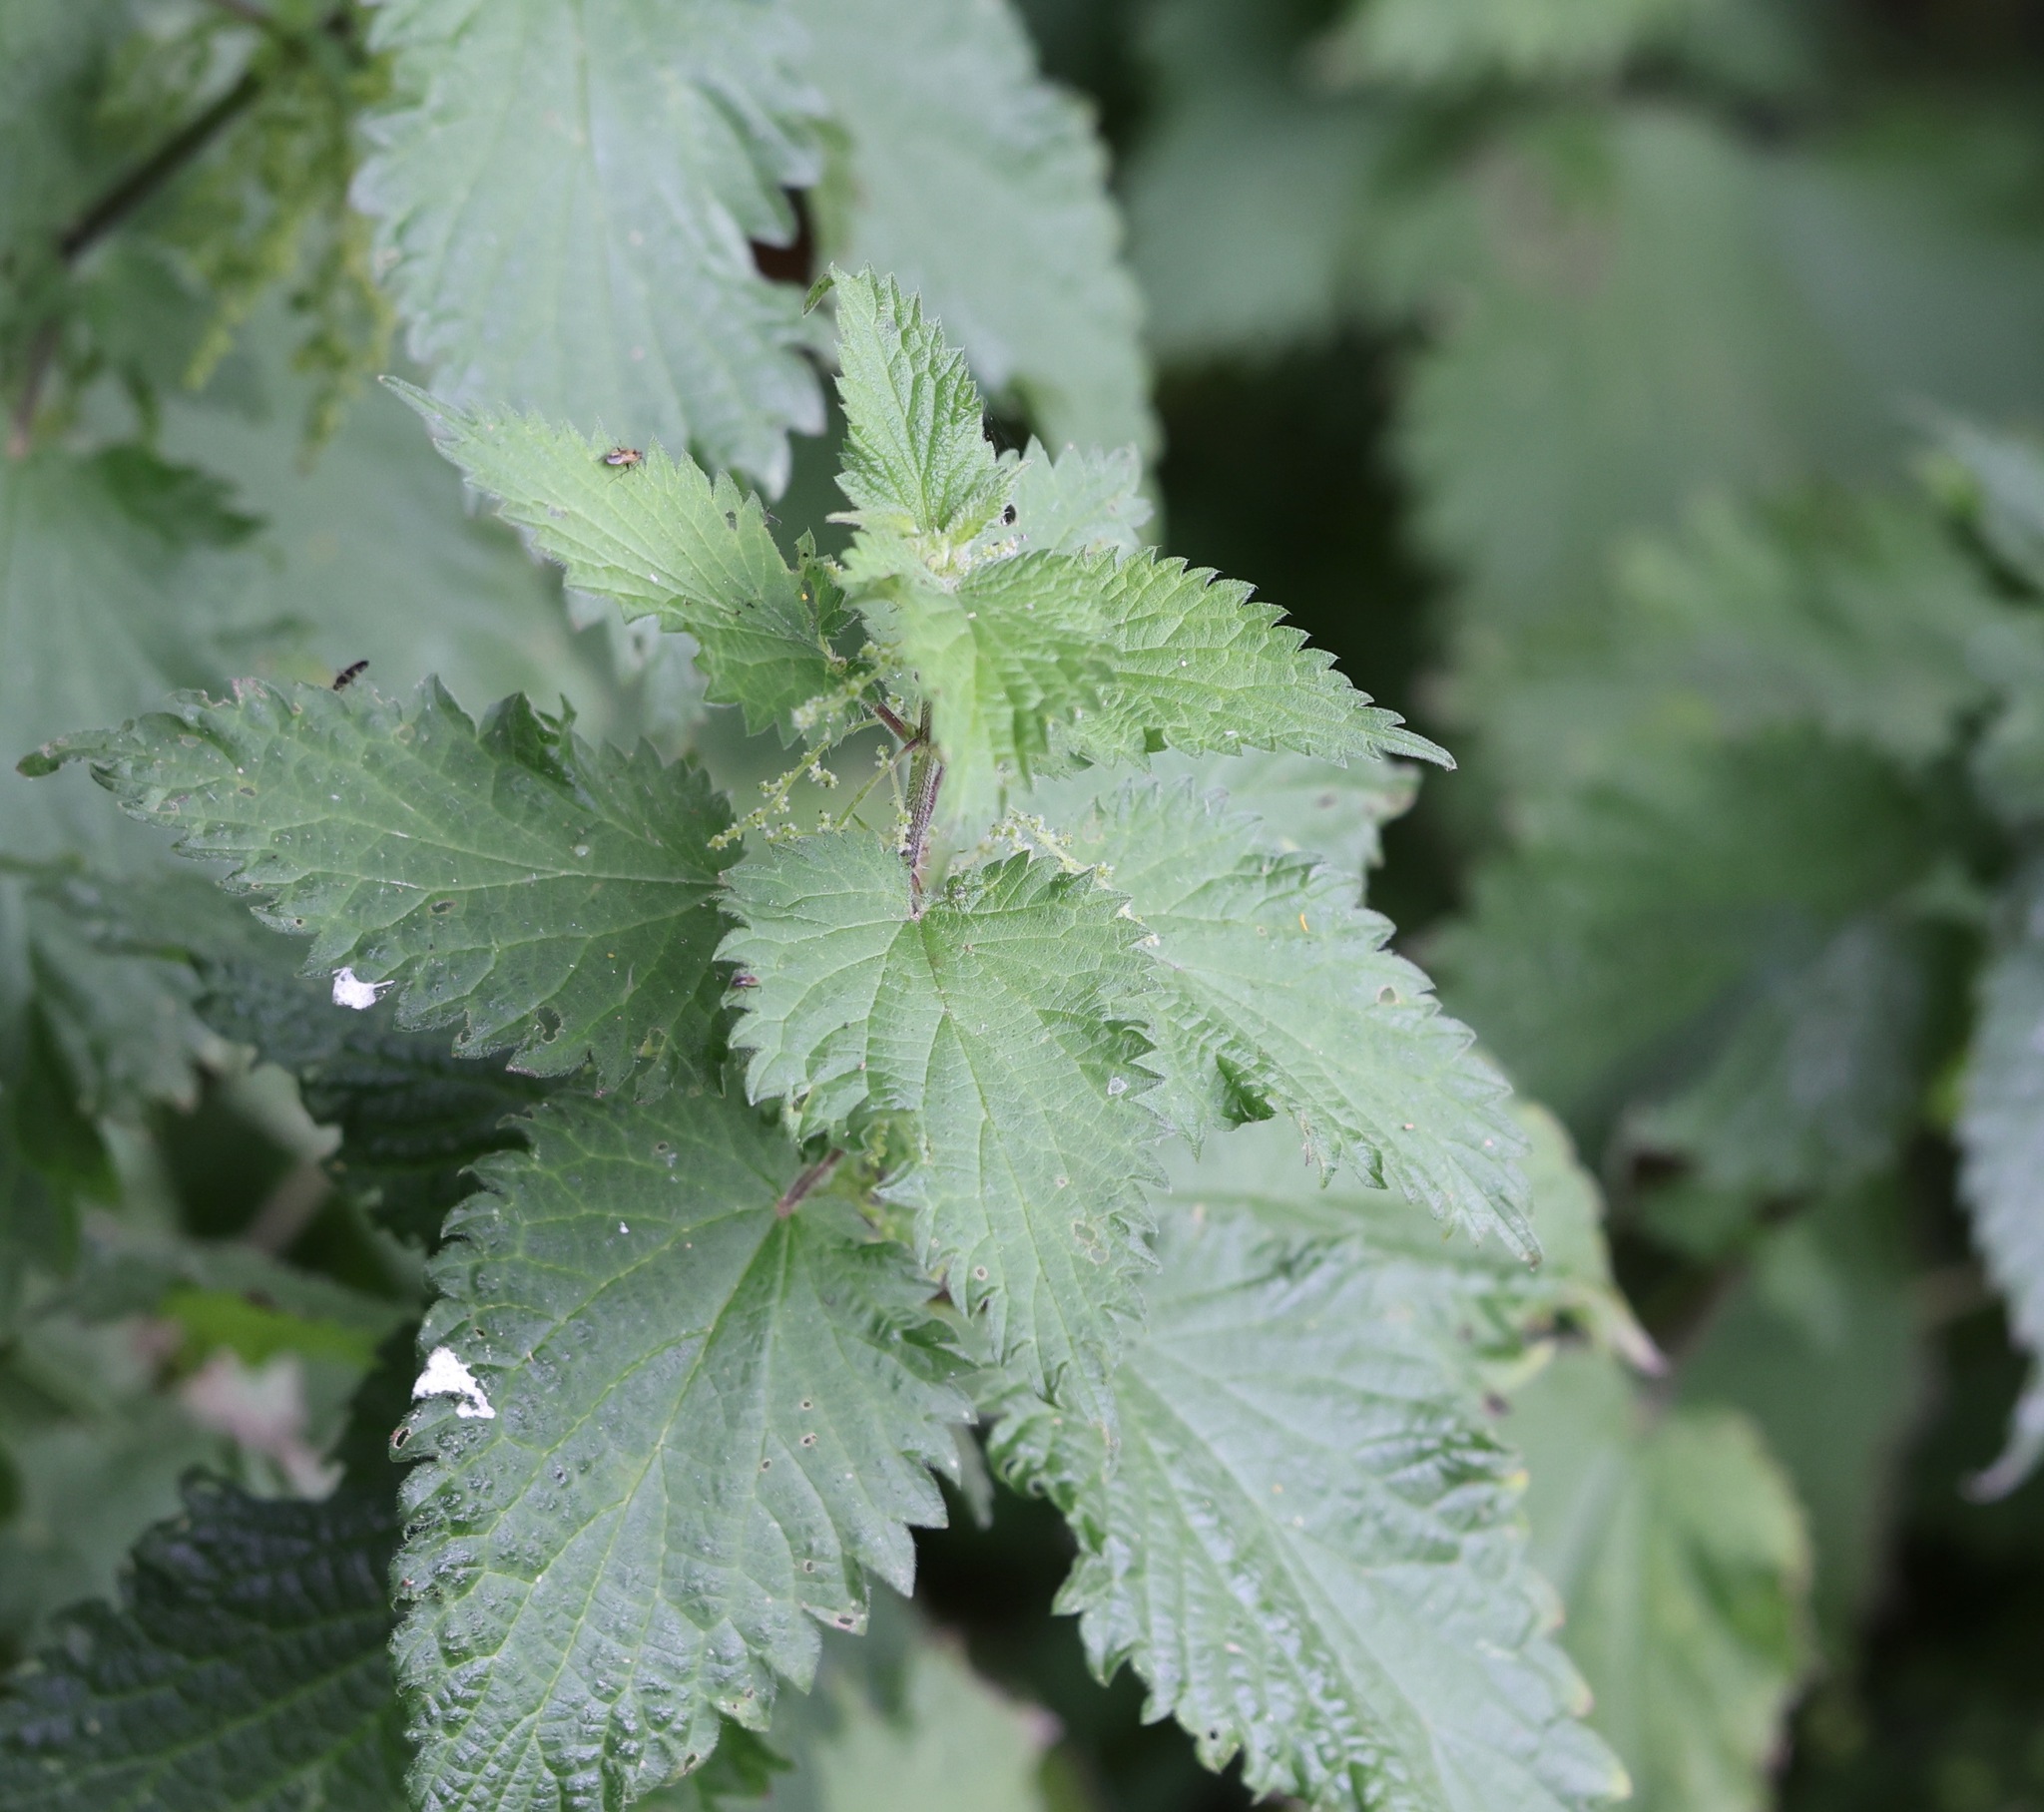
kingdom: Plantae
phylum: Tracheophyta
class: Magnoliopsida
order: Rosales
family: Urticaceae
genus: Urtica
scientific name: Urtica dioica
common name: Common nettle
